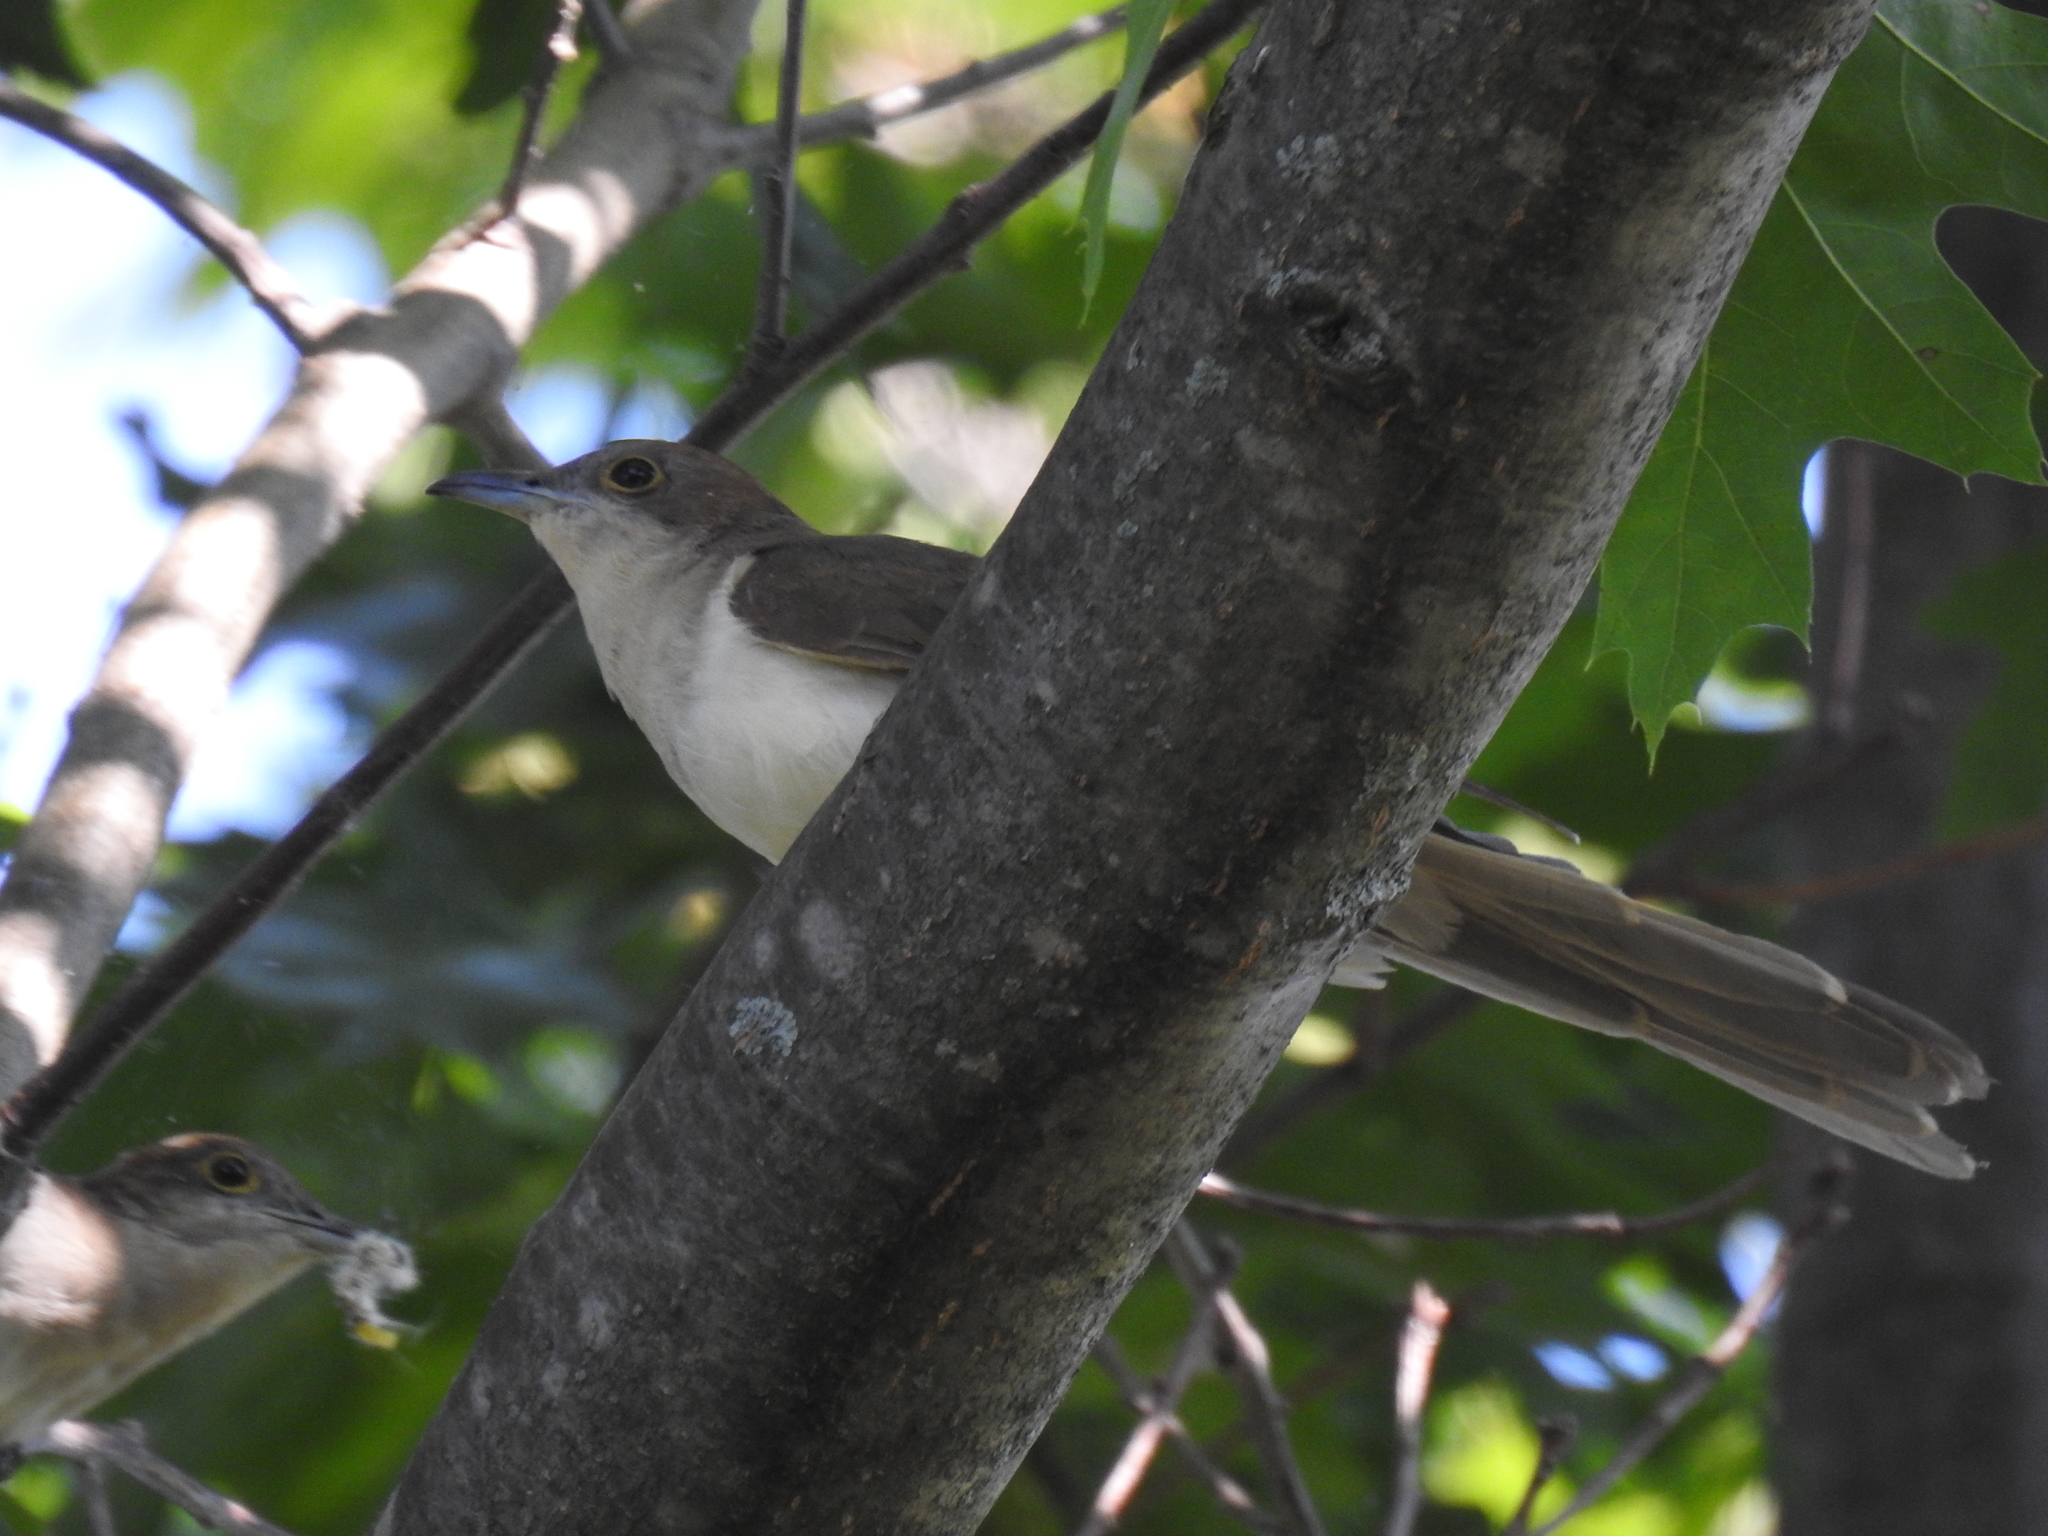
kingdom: Animalia
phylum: Chordata
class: Aves
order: Cuculiformes
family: Cuculidae
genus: Coccyzus
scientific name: Coccyzus erythropthalmus
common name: Black-billed cuckoo
